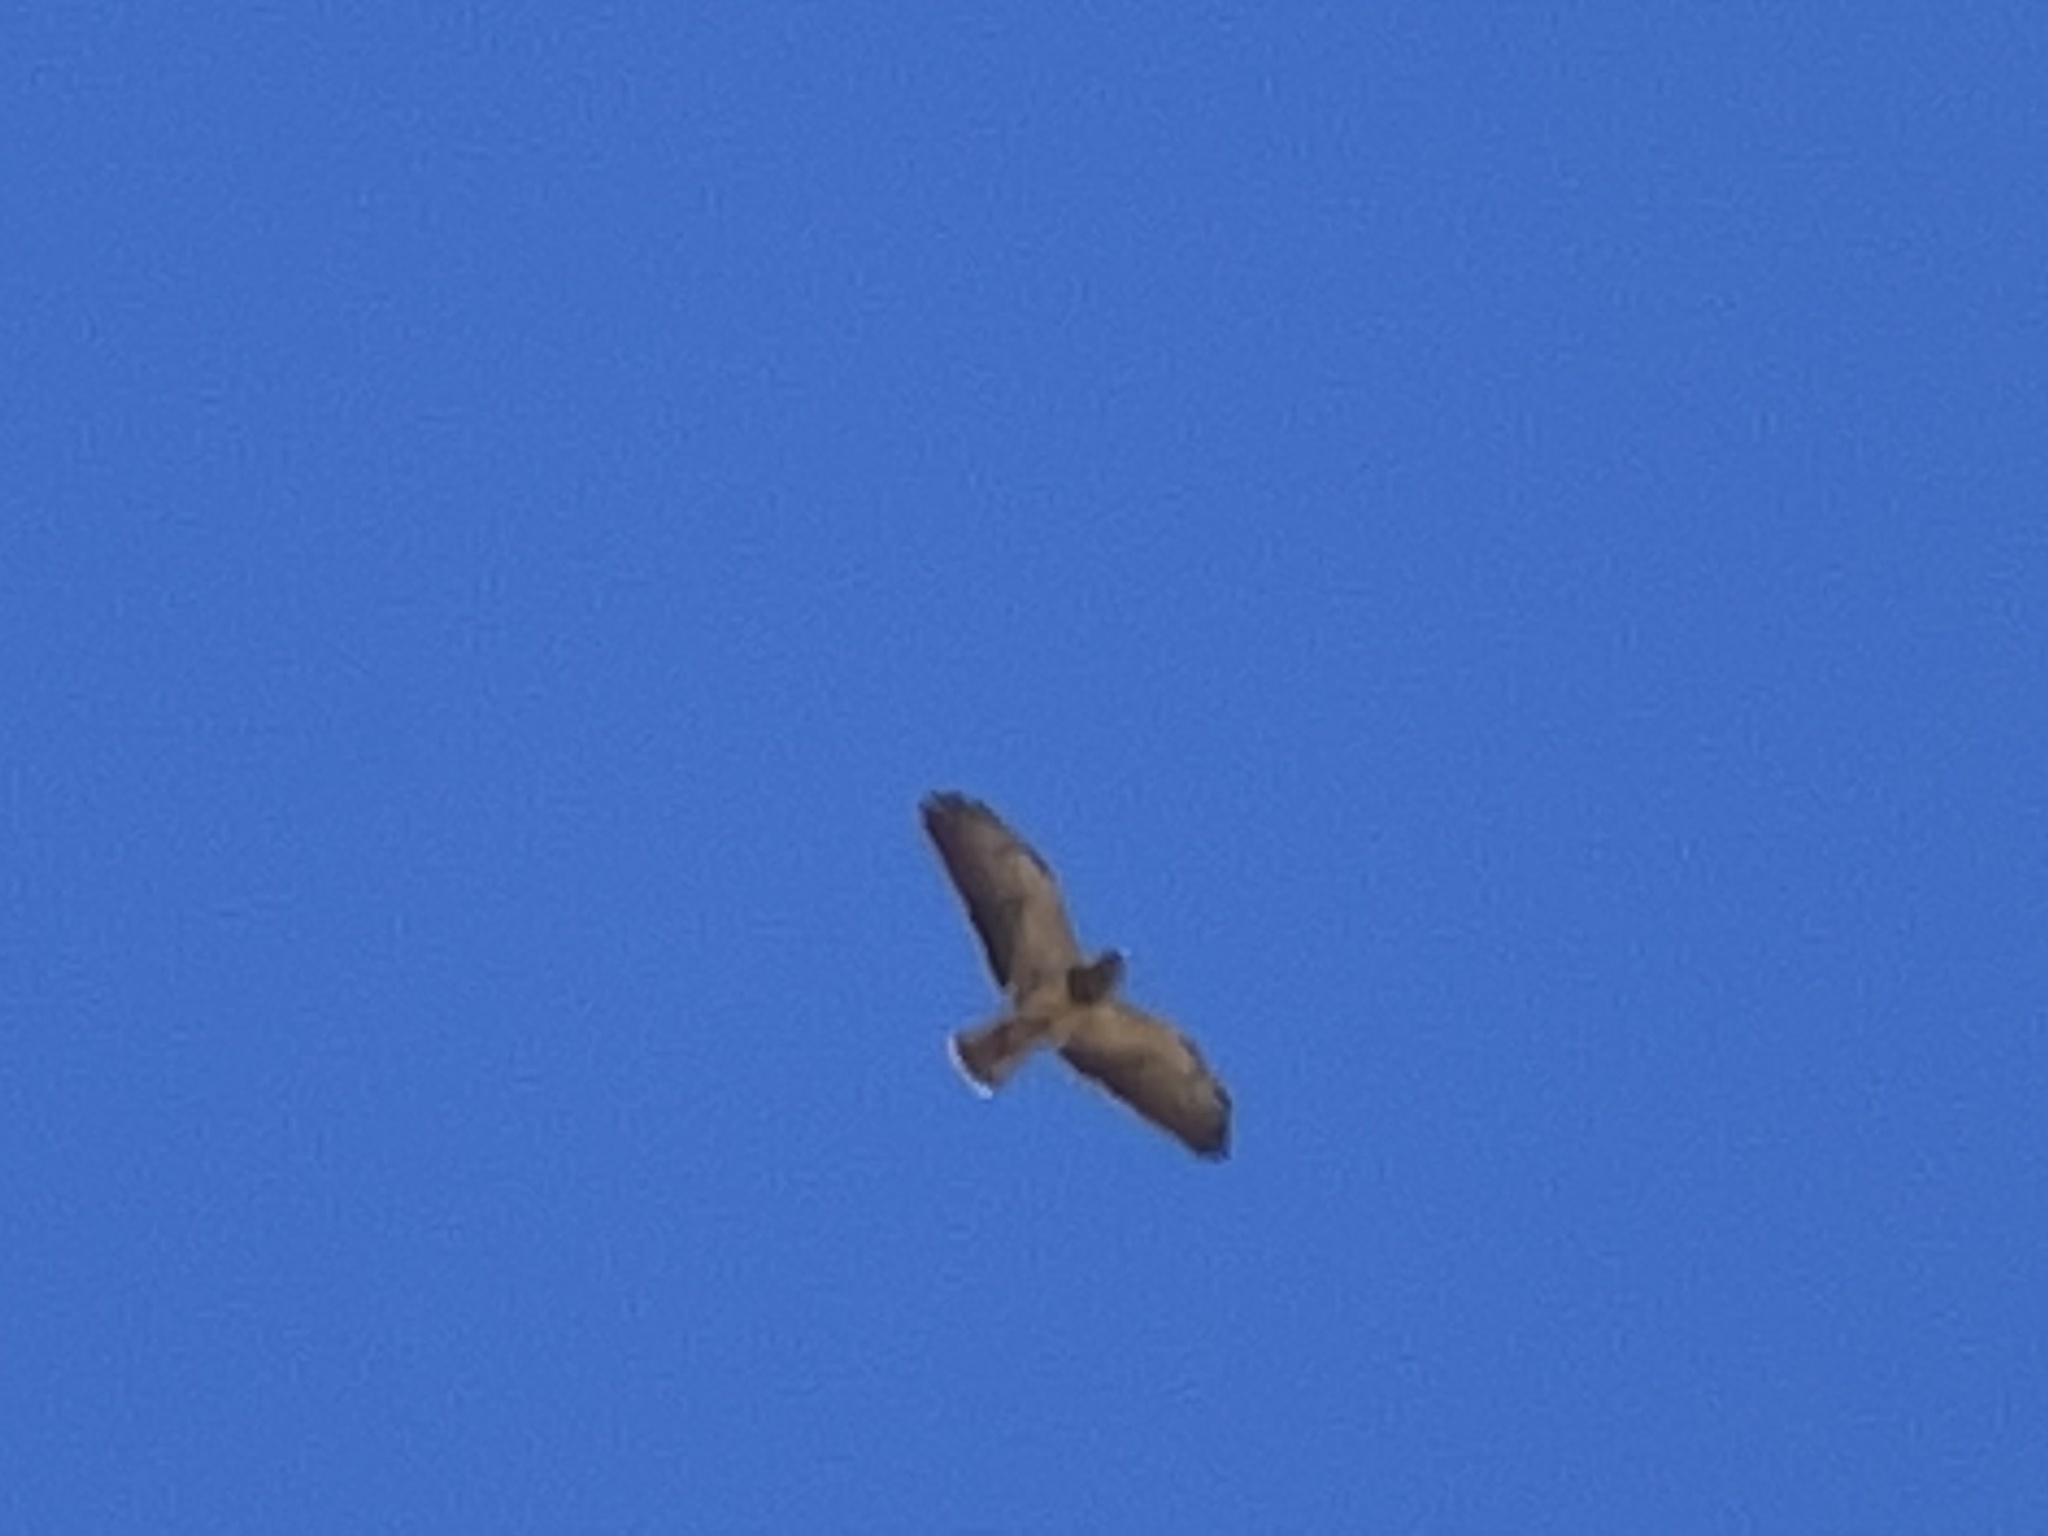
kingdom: Animalia
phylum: Chordata
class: Aves
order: Accipitriformes
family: Accipitridae
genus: Buteo
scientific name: Buteo swainsoni
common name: Swainson's hawk
